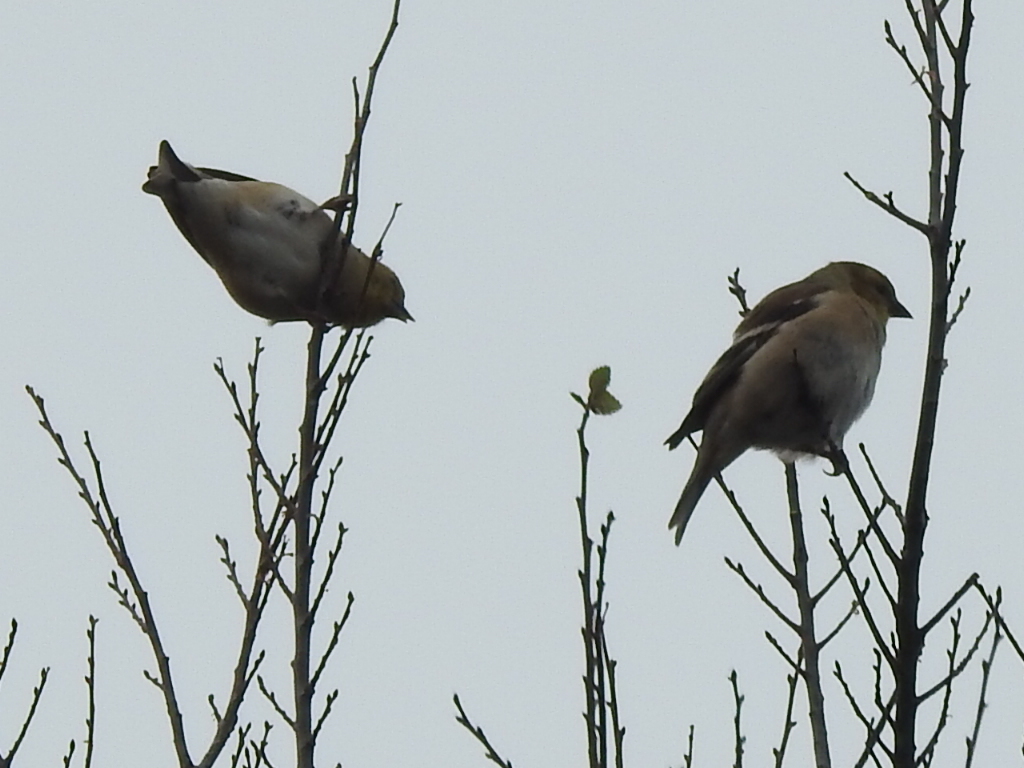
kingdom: Animalia
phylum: Chordata
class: Aves
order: Passeriformes
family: Fringillidae
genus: Spinus
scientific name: Spinus tristis
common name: American goldfinch
